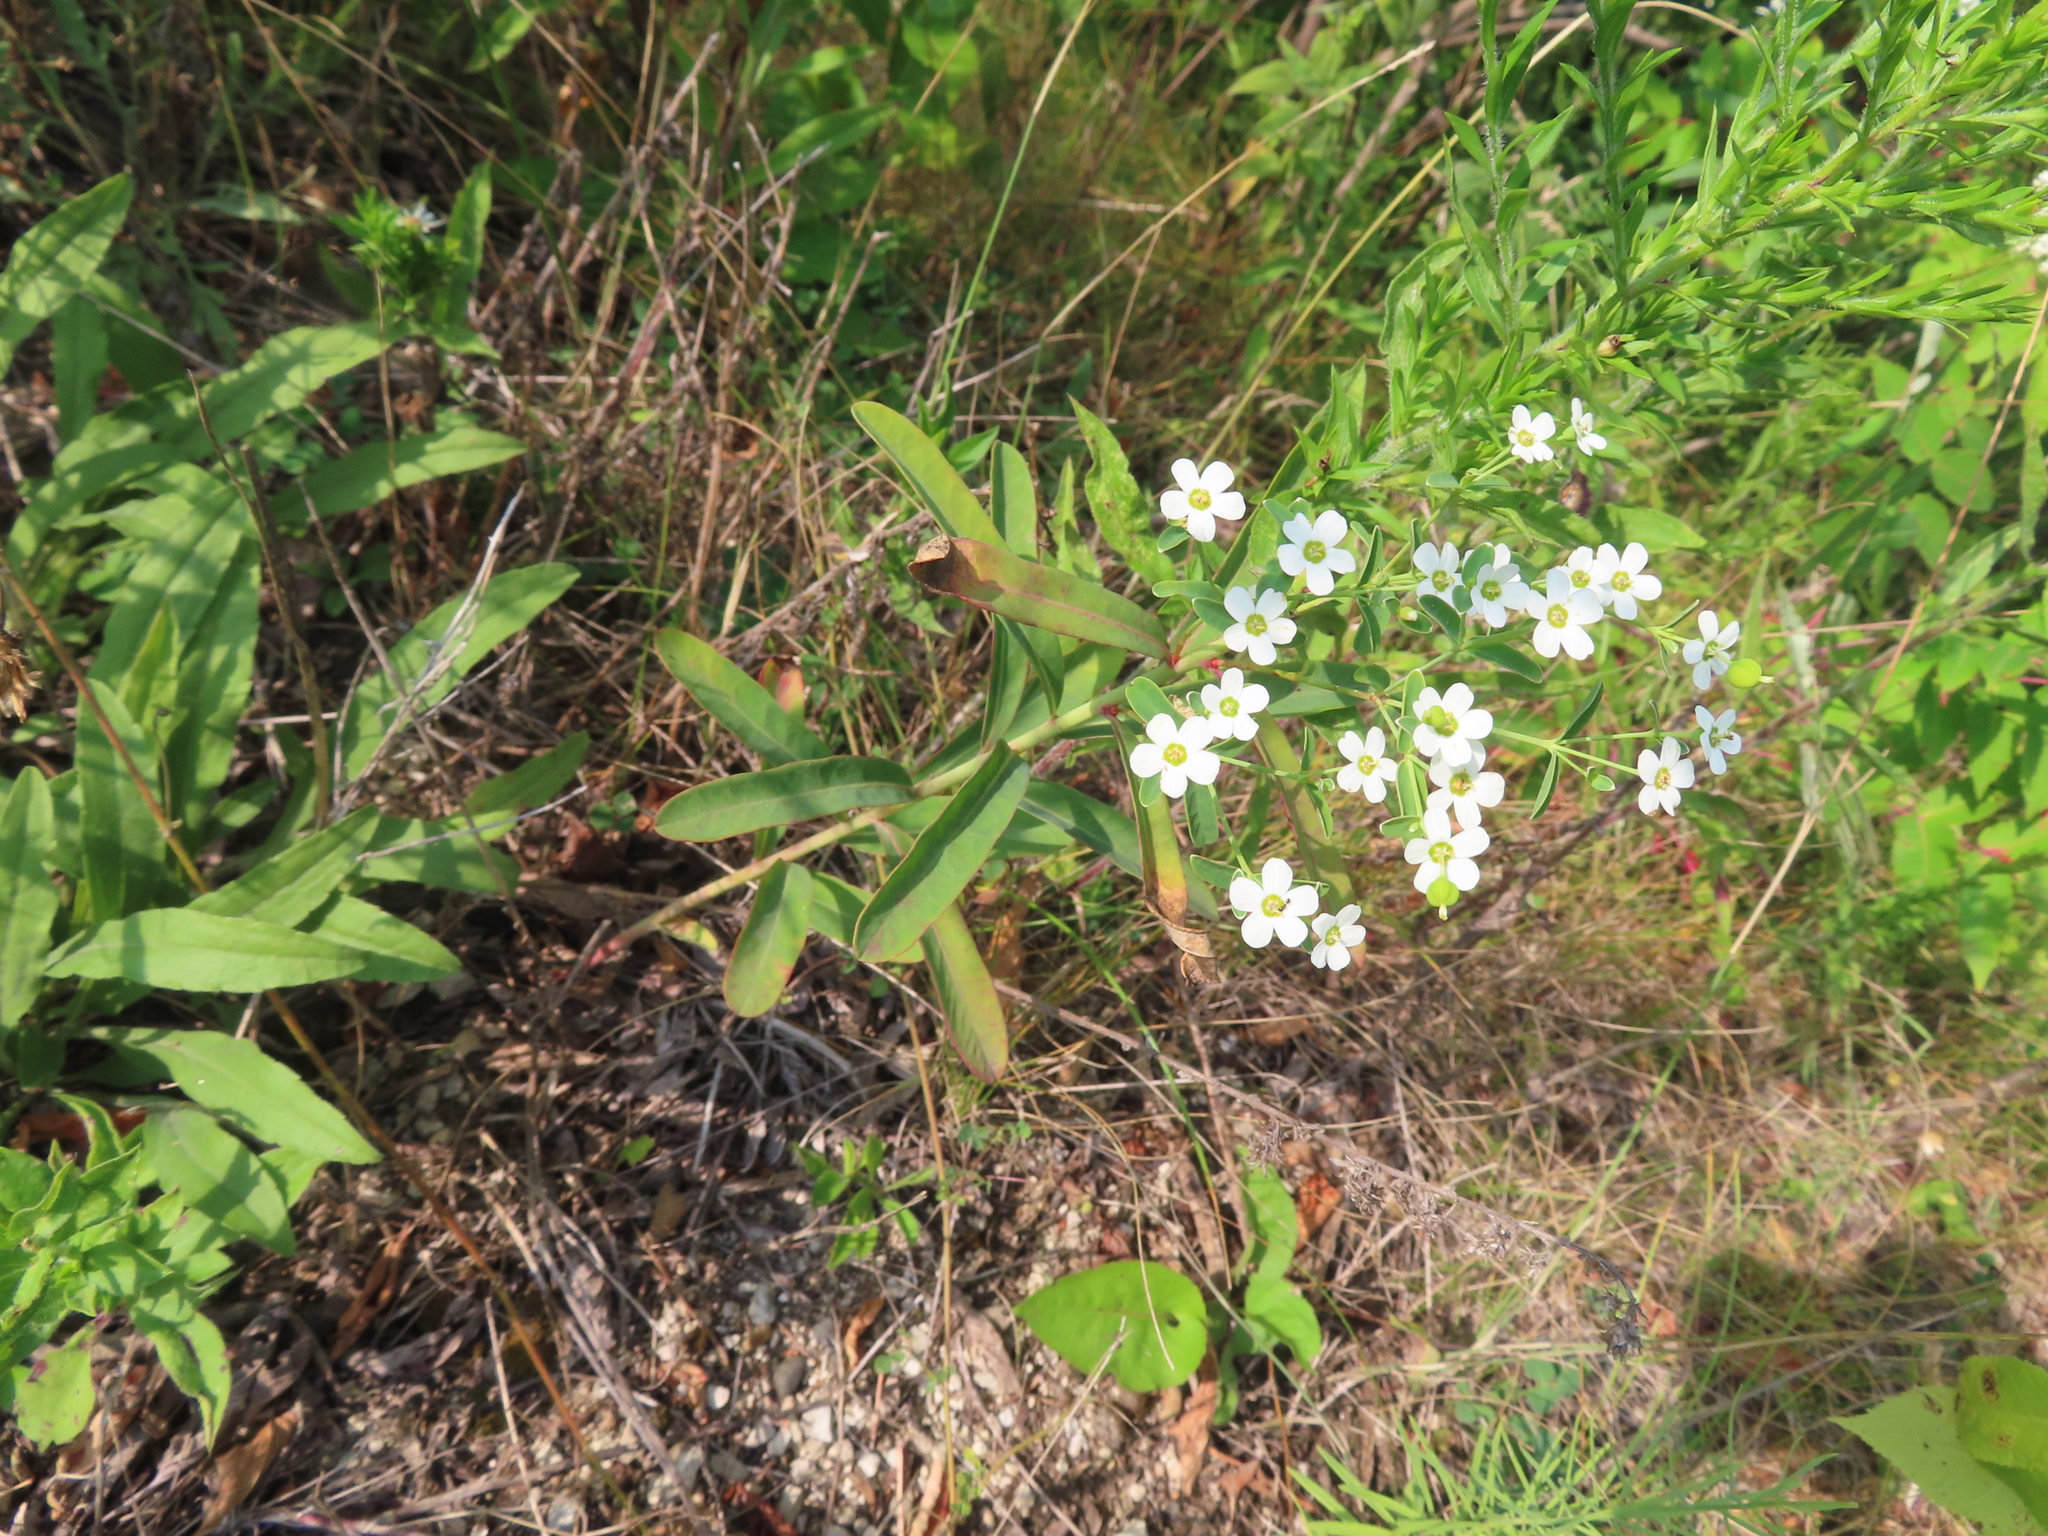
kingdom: Plantae
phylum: Tracheophyta
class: Magnoliopsida
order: Malpighiales
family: Euphorbiaceae
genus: Euphorbia
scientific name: Euphorbia corollata
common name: Flowering spurge
